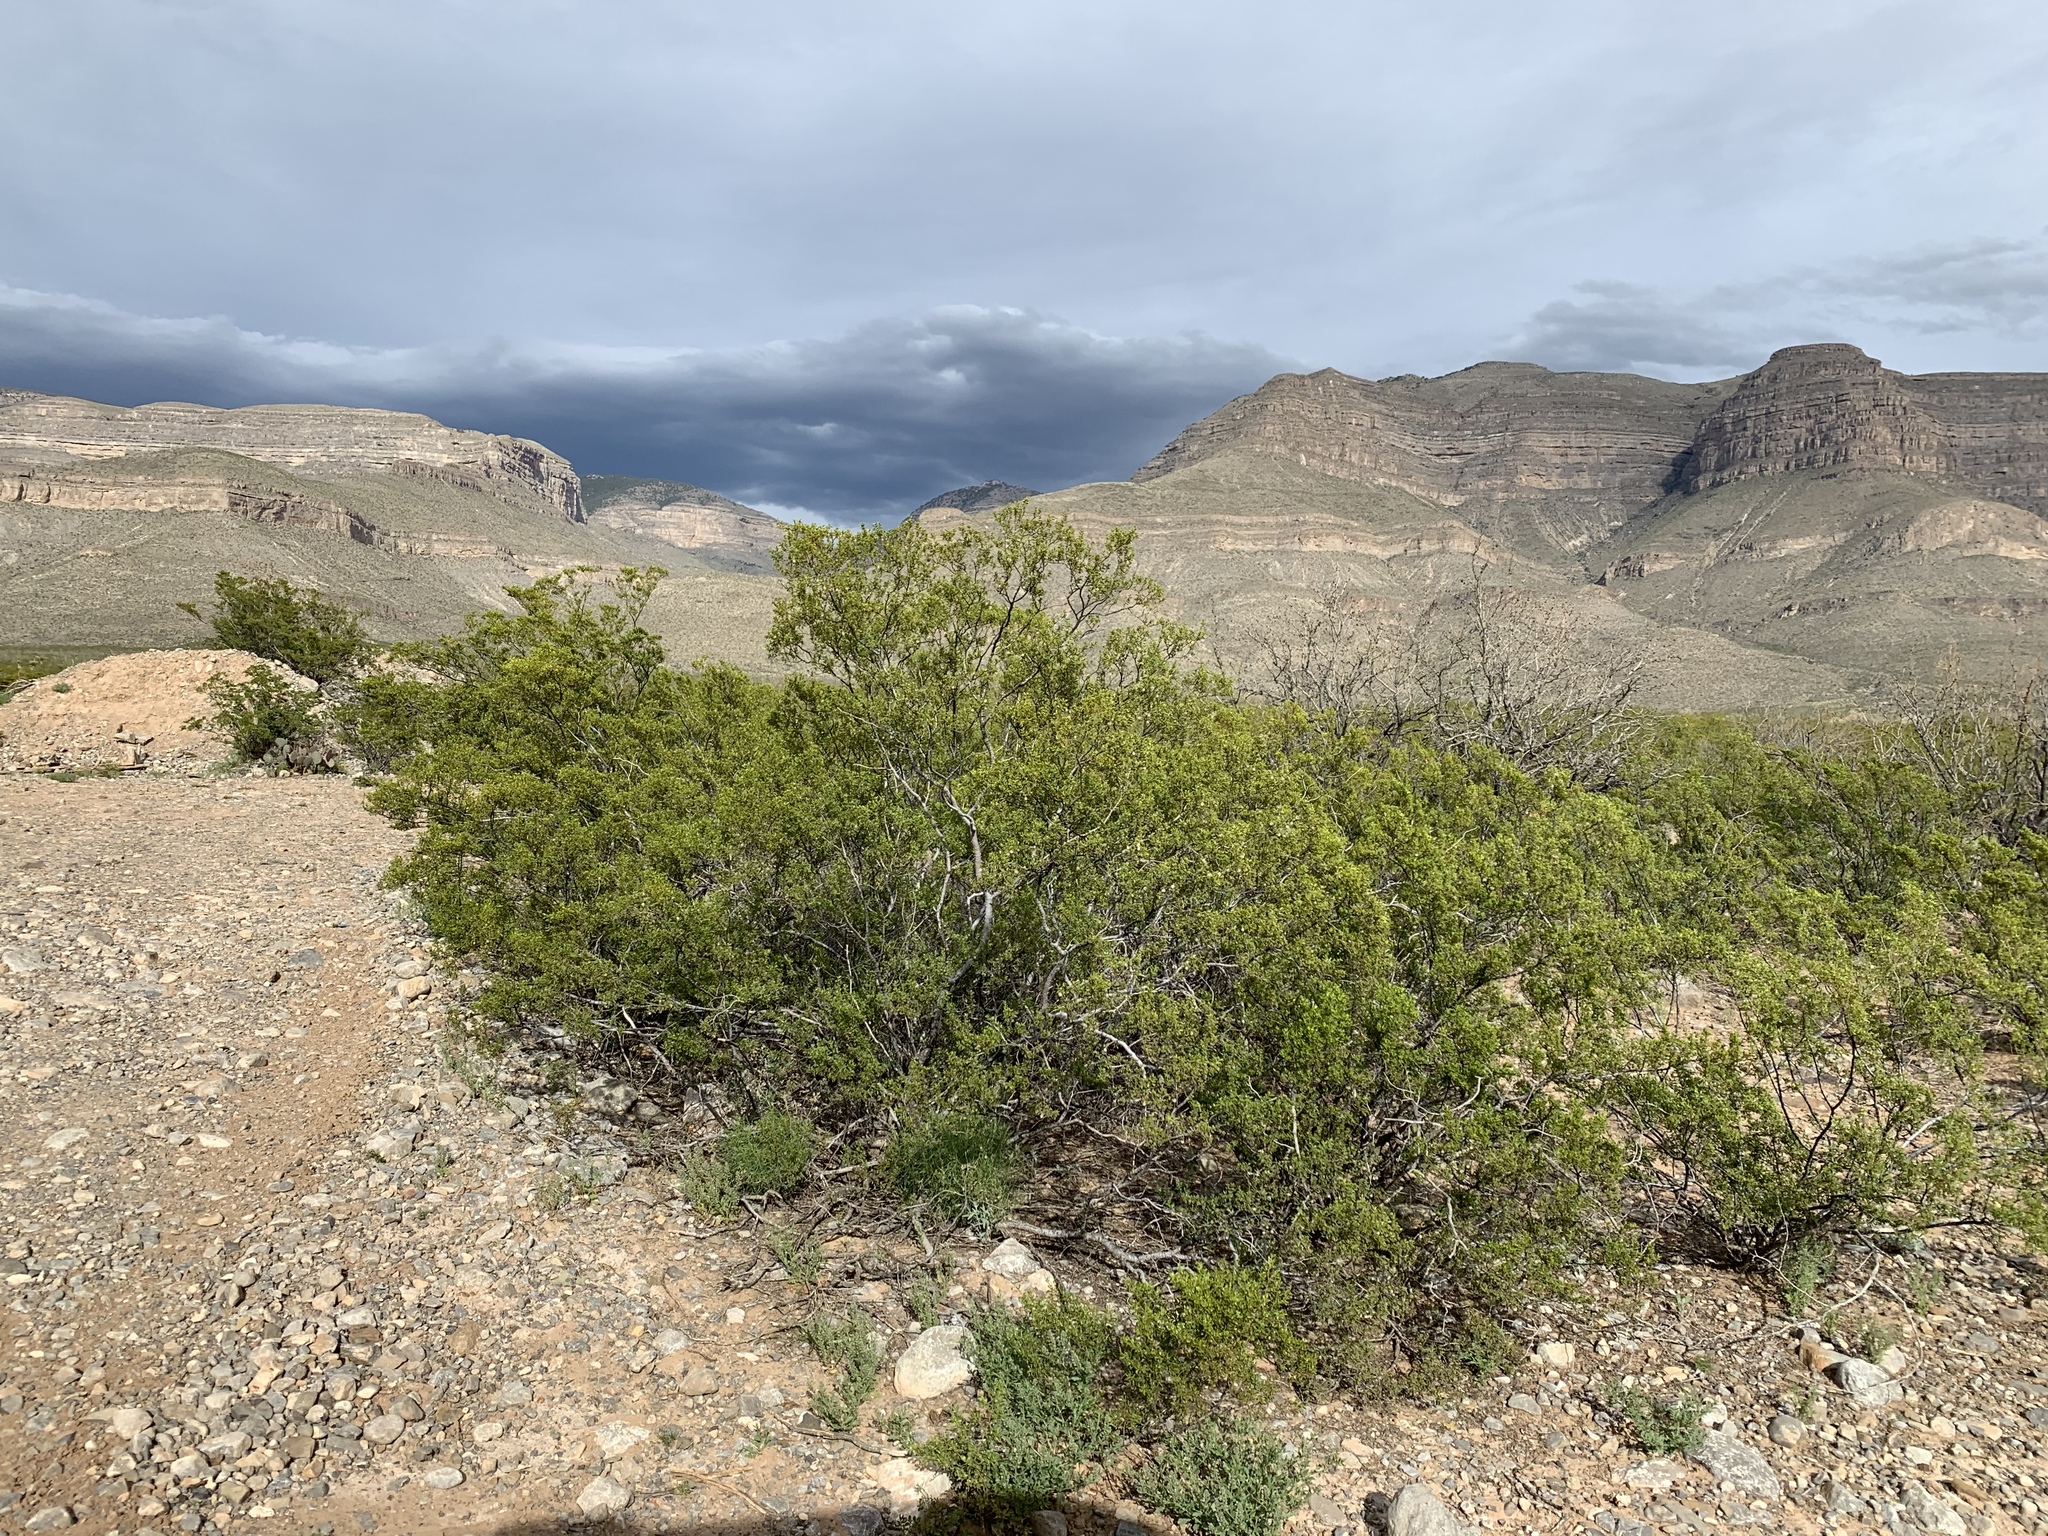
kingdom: Plantae
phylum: Tracheophyta
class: Magnoliopsida
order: Zygophyllales
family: Zygophyllaceae
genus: Larrea
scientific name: Larrea tridentata
